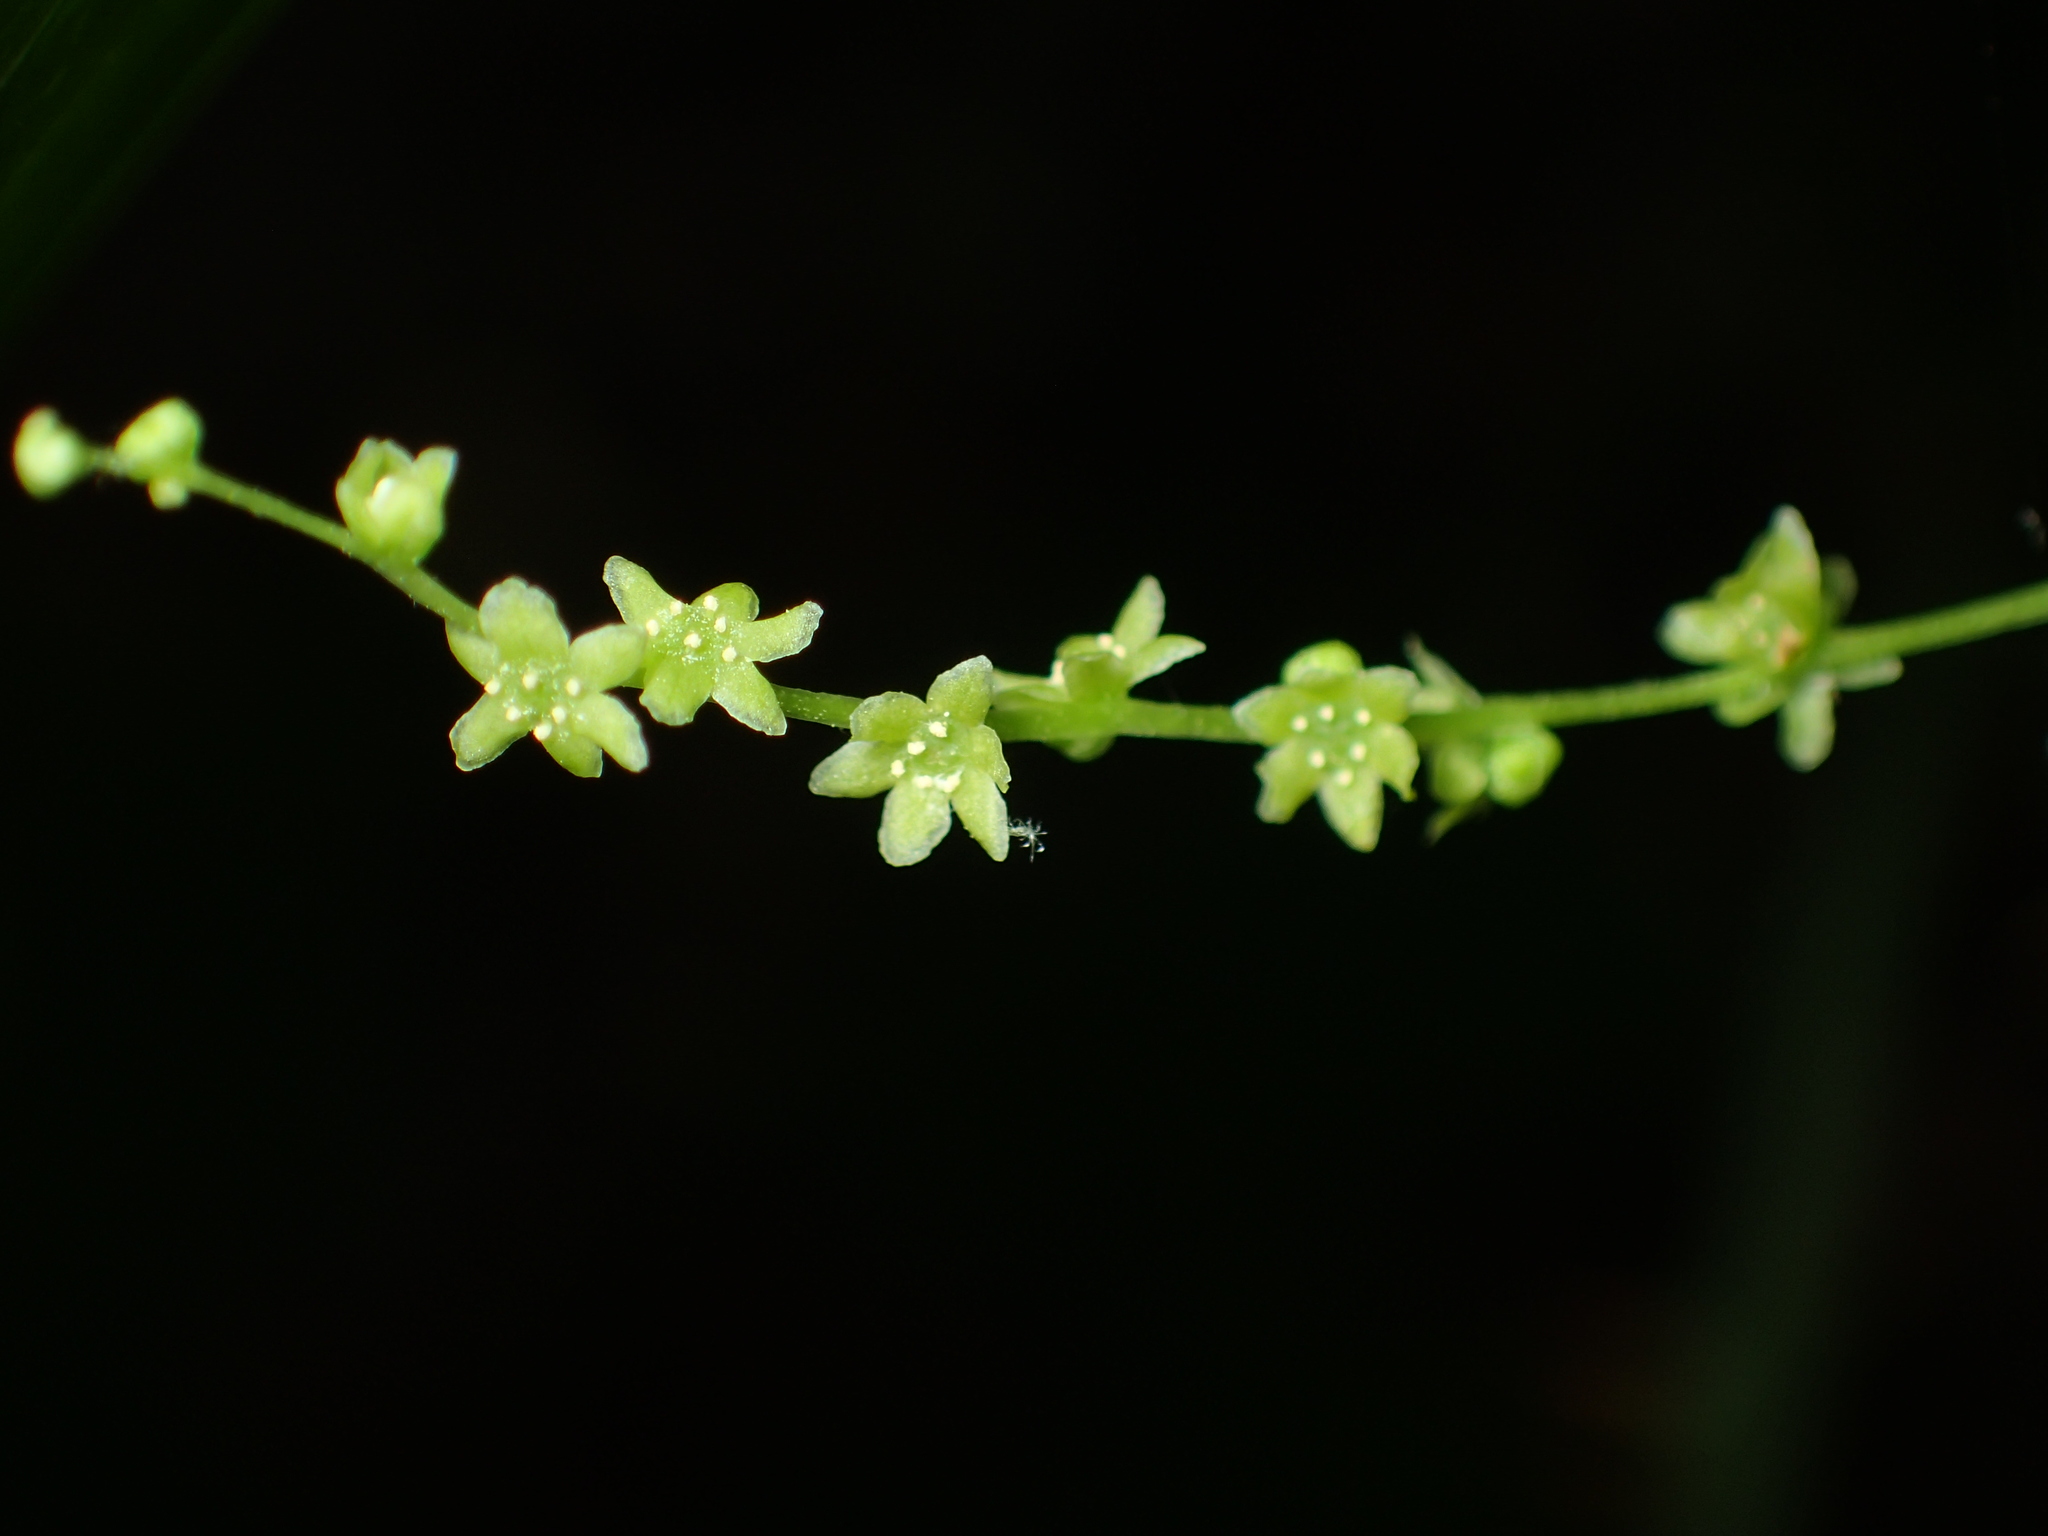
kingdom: Plantae
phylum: Tracheophyta
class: Liliopsida
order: Dioscoreales
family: Dioscoreaceae
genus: Dioscorea
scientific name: Dioscorea villosa
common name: Wild yam
